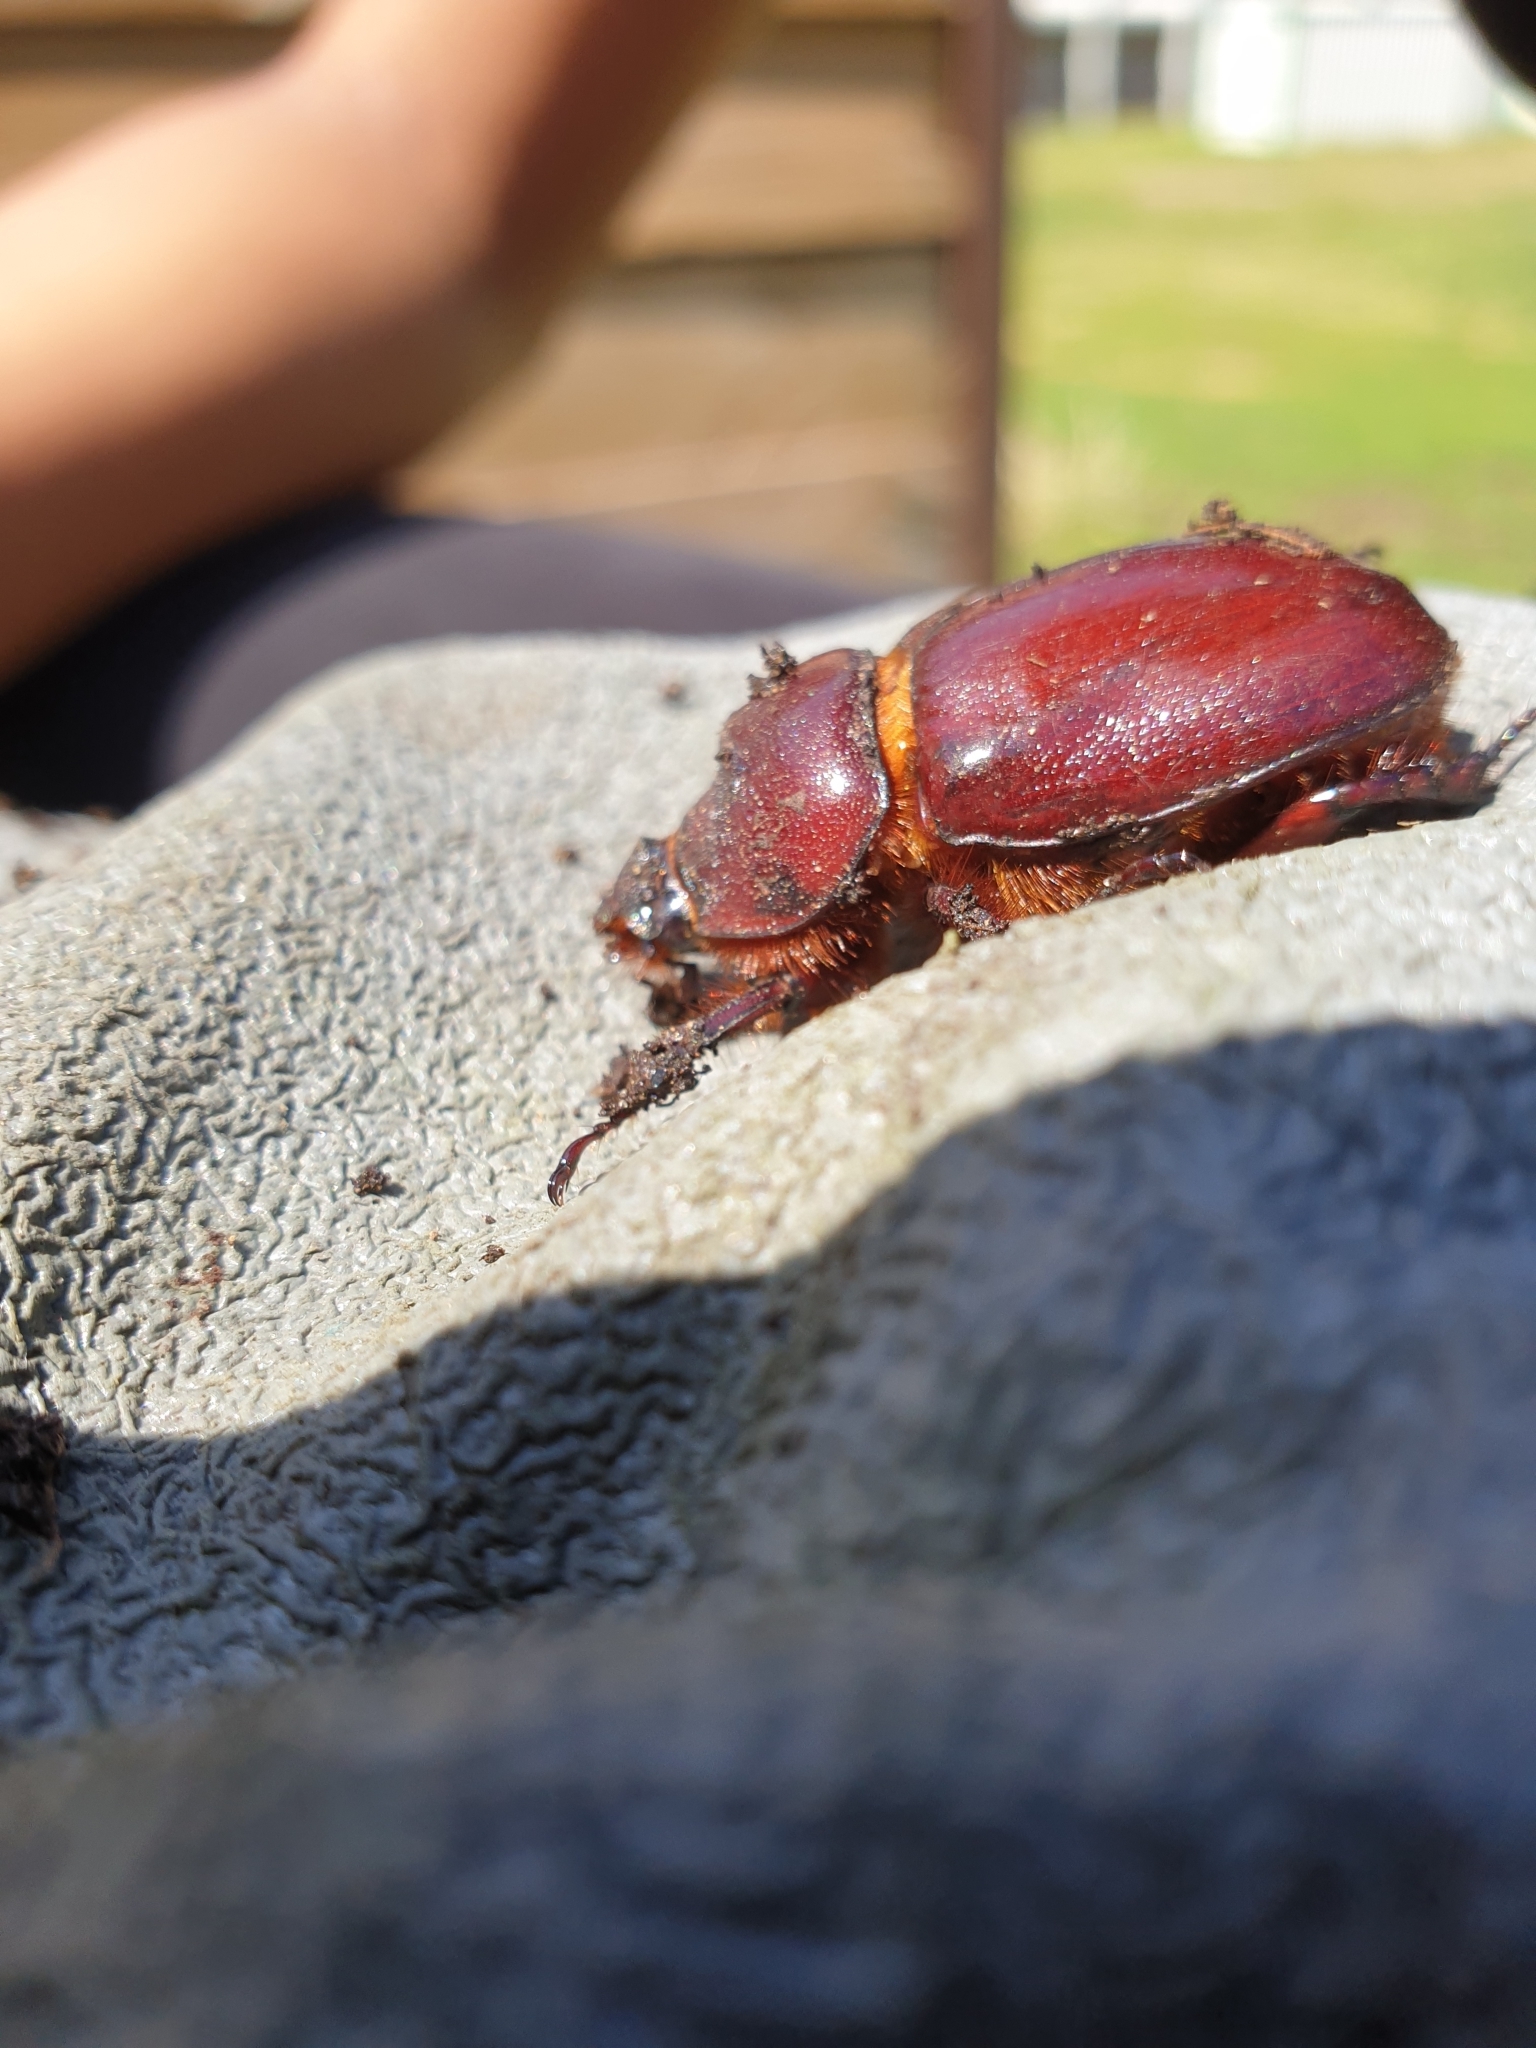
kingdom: Animalia
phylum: Arthropoda
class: Insecta
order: Coleoptera
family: Scarabaeidae
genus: Oryctes
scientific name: Oryctes nasicornis
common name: European rhinoceros beetle
